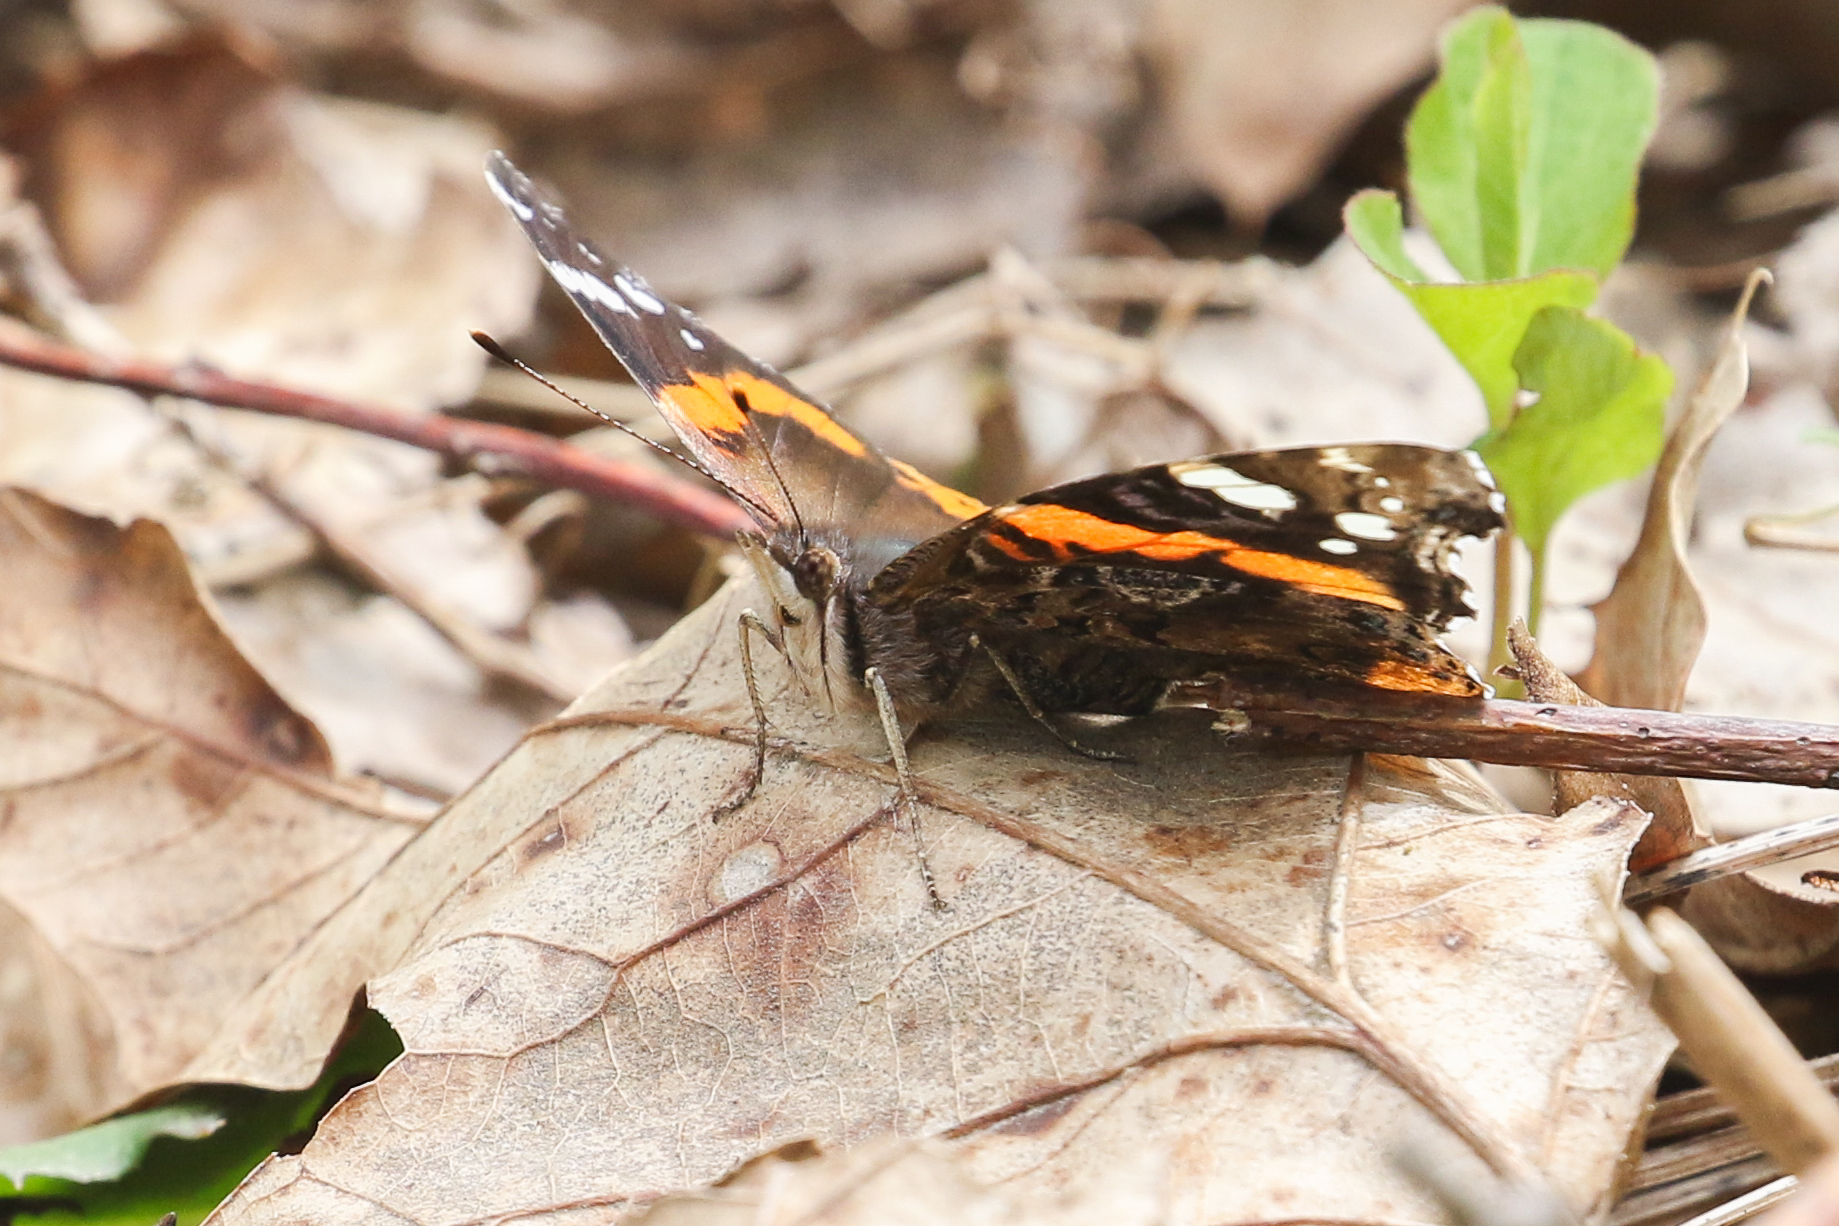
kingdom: Animalia
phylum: Arthropoda
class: Insecta
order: Lepidoptera
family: Nymphalidae
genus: Vanessa
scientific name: Vanessa atalanta
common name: Red admiral
